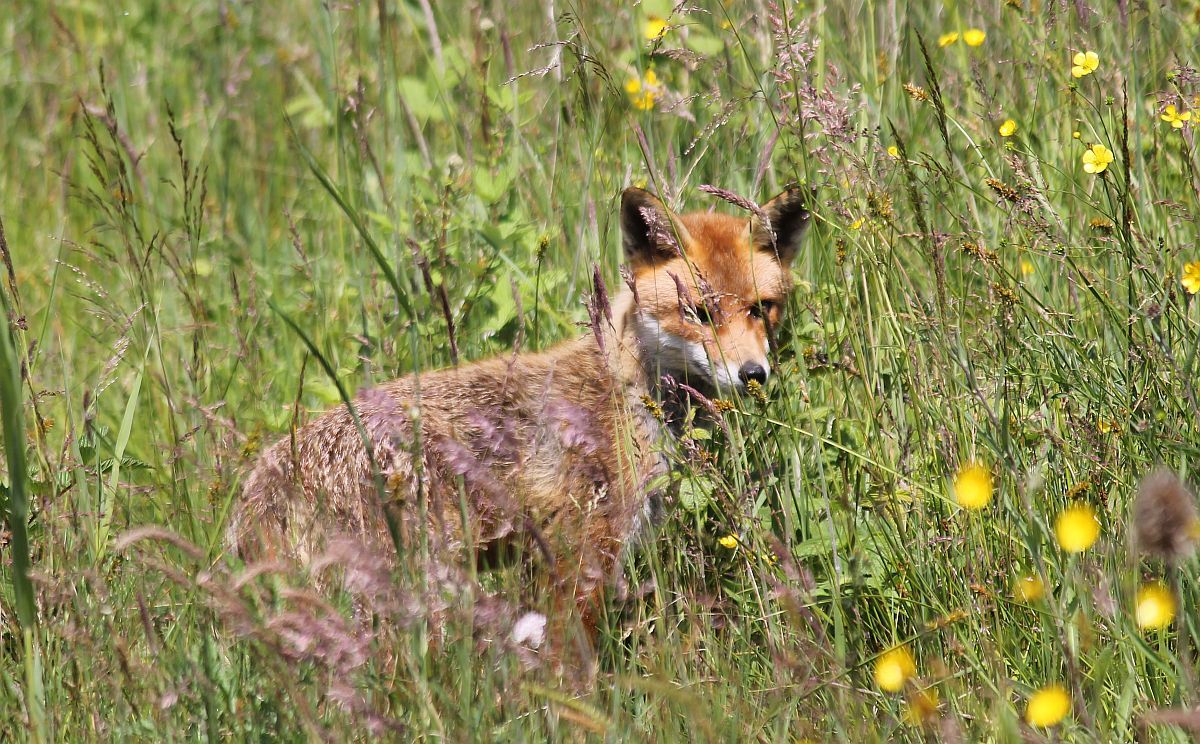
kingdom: Animalia
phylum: Chordata
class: Mammalia
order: Carnivora
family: Canidae
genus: Vulpes
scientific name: Vulpes vulpes
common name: Red fox
